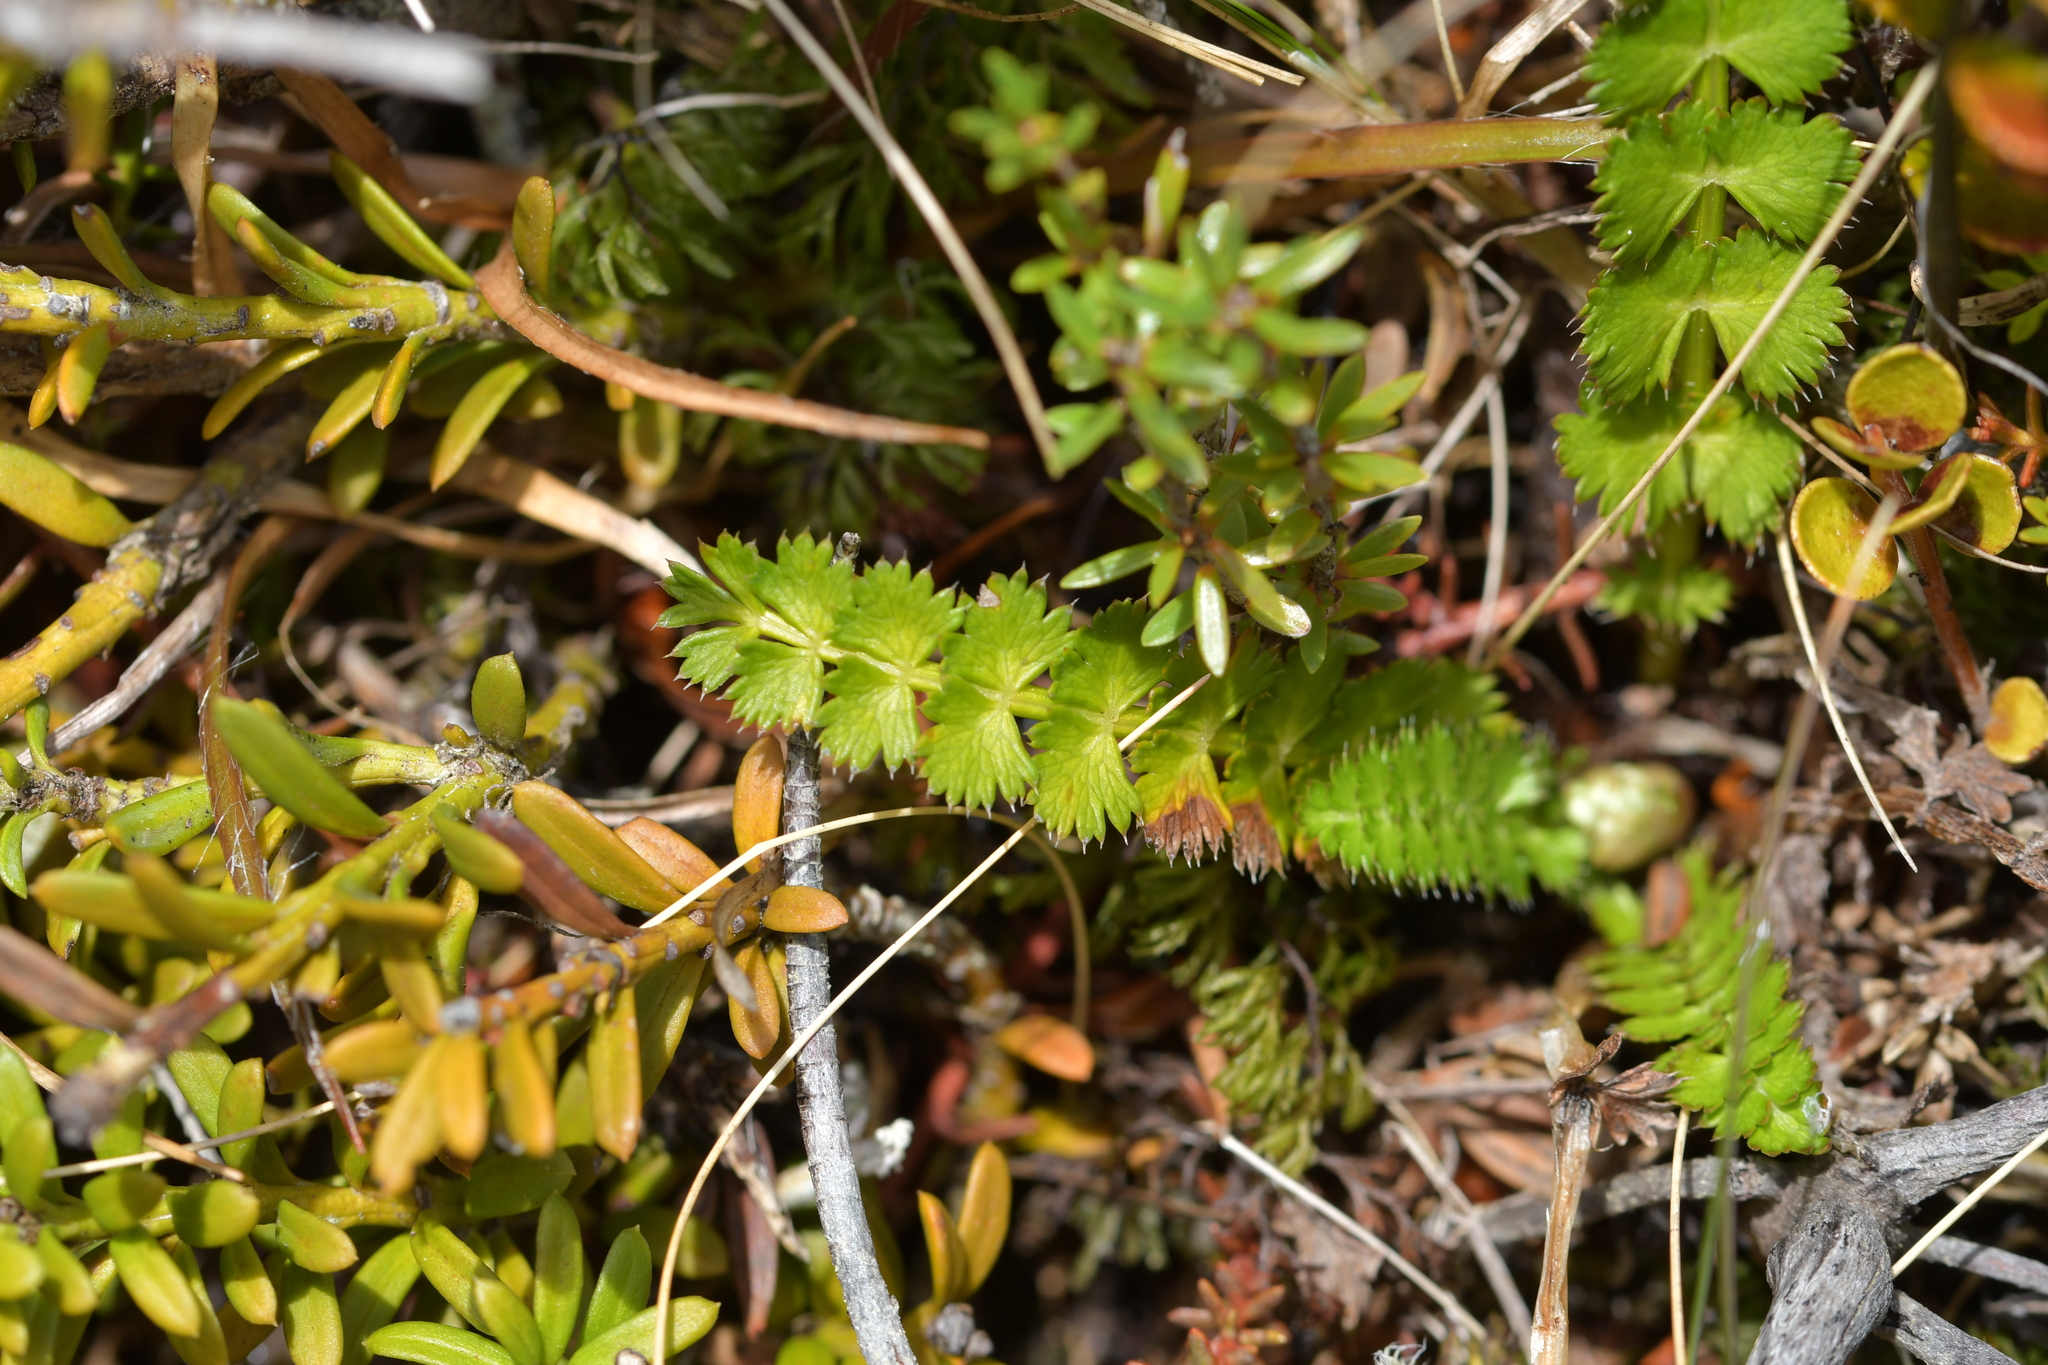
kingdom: Plantae
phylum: Tracheophyta
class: Magnoliopsida
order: Apiales
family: Apiaceae
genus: Anisotome
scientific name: Anisotome aromatica
